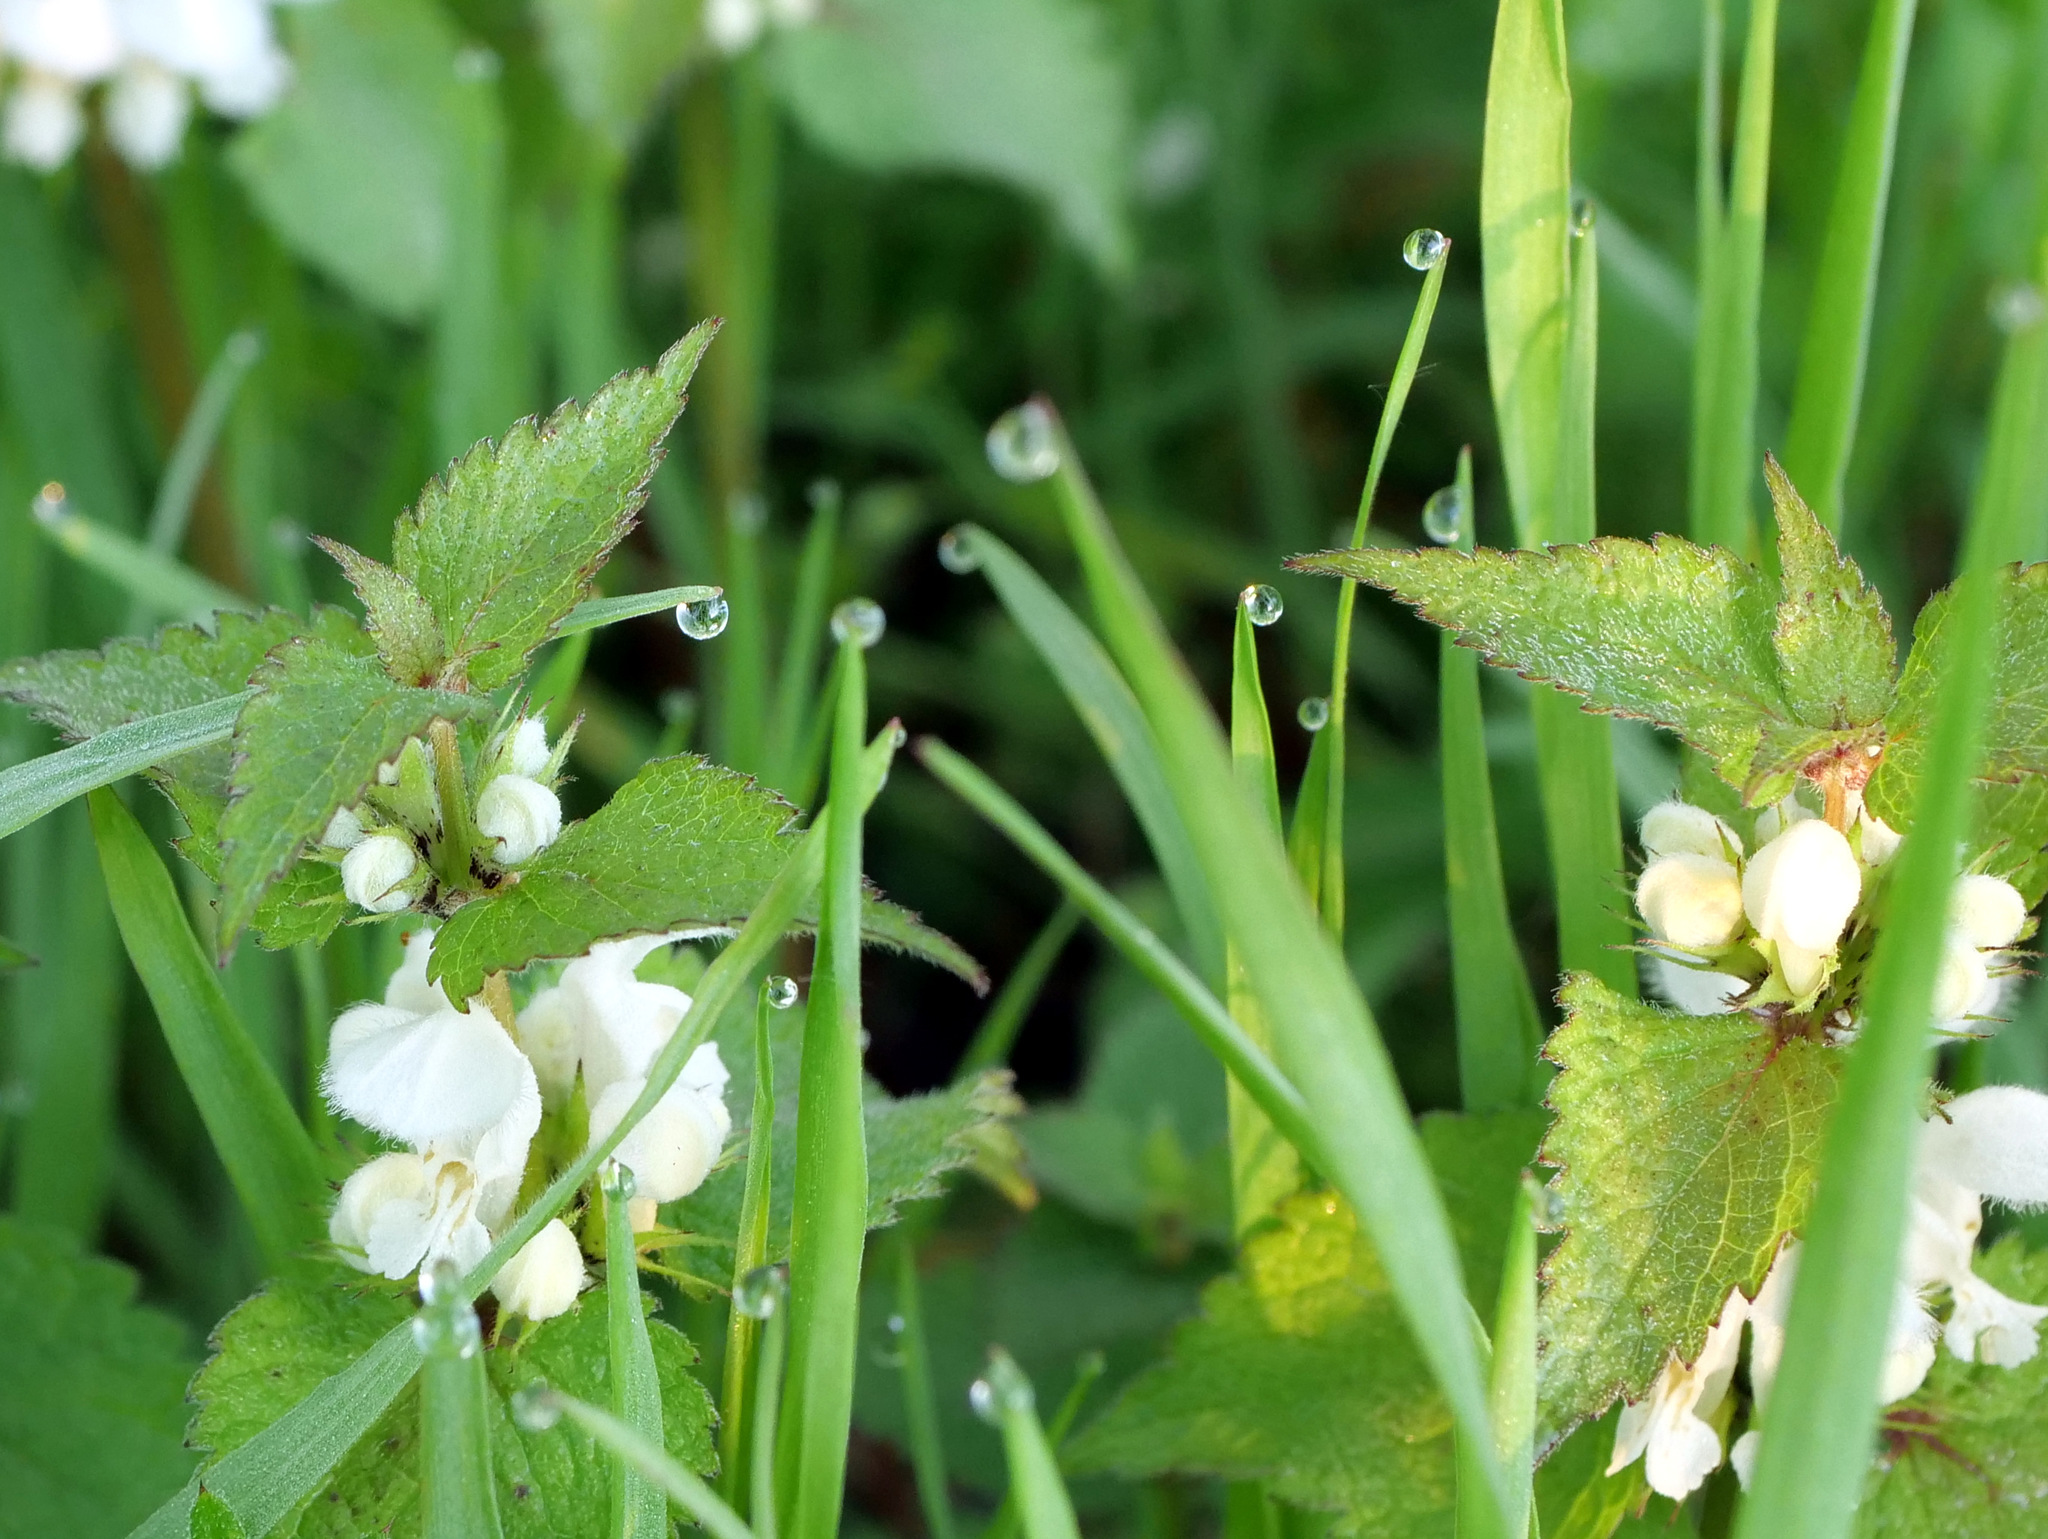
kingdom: Plantae
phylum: Tracheophyta
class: Magnoliopsida
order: Lamiales
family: Lamiaceae
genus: Lamium
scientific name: Lamium album
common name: White dead-nettle
